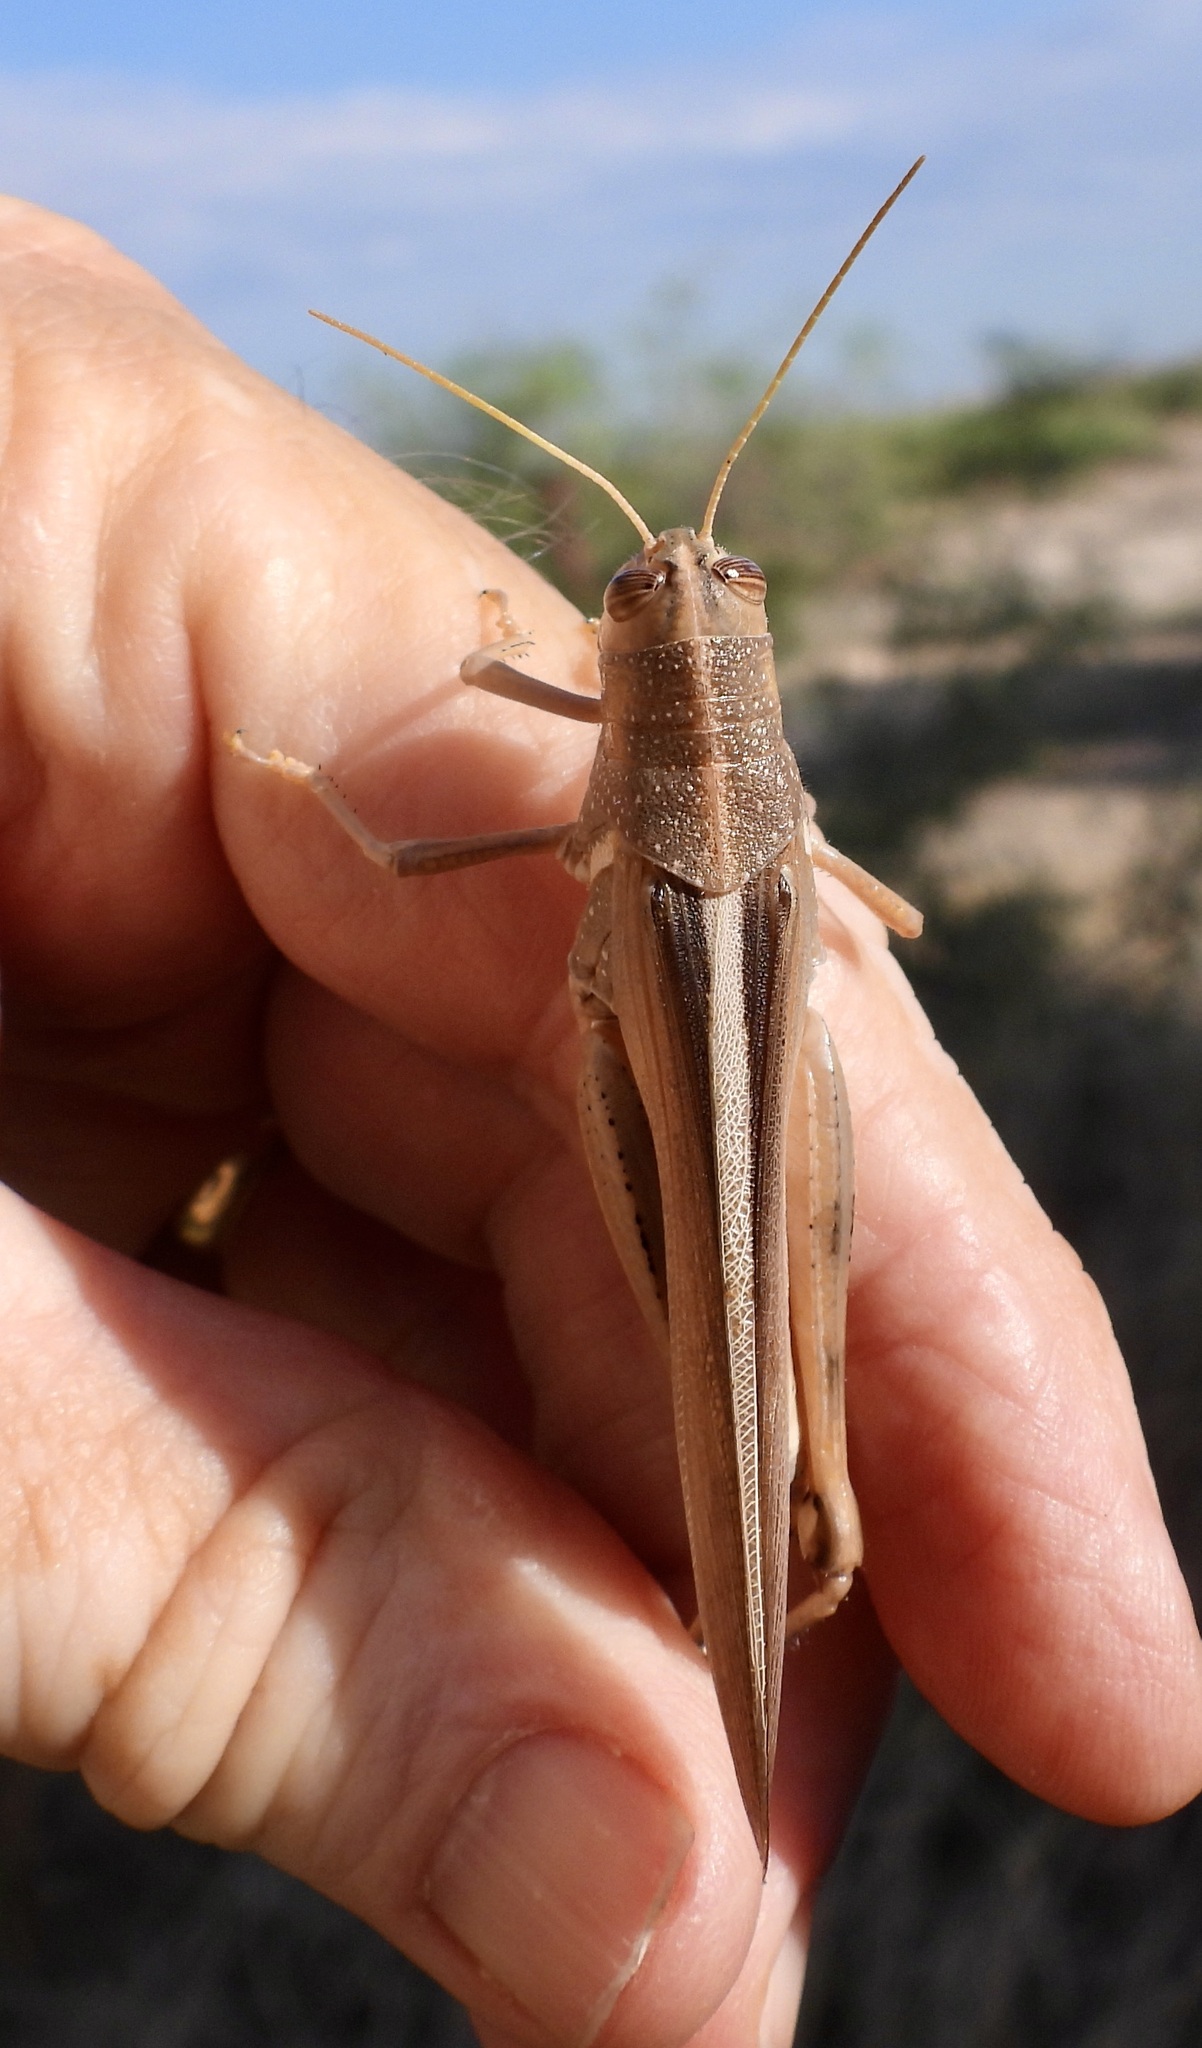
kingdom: Animalia
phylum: Arthropoda
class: Insecta
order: Orthoptera
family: Acrididae
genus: Schistocerca
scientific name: Schistocerca lineata
